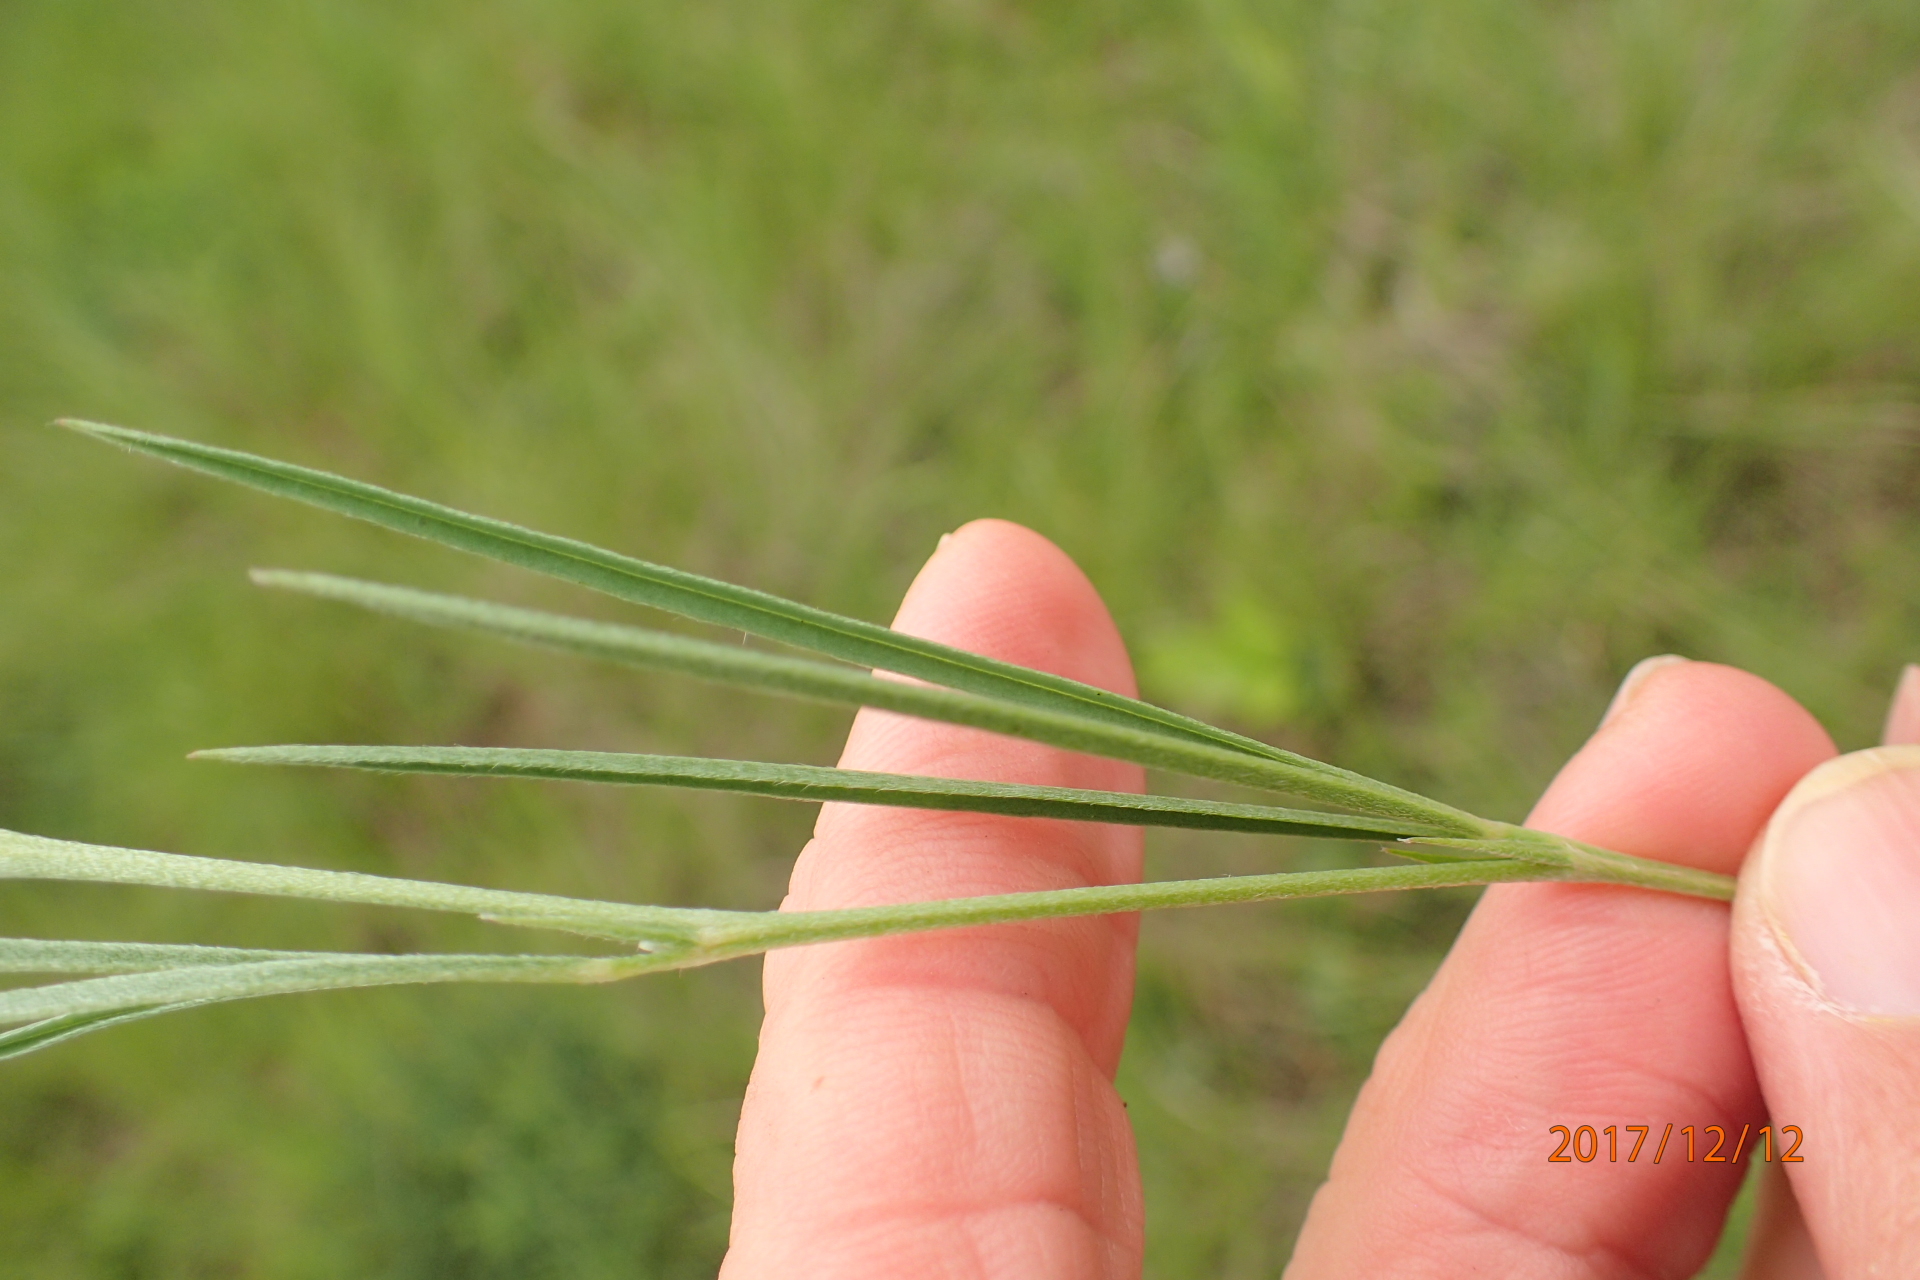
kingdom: Plantae
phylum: Tracheophyta
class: Magnoliopsida
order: Fabales
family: Fabaceae
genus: Argyrolobium
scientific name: Argyrolobium tuberosum
